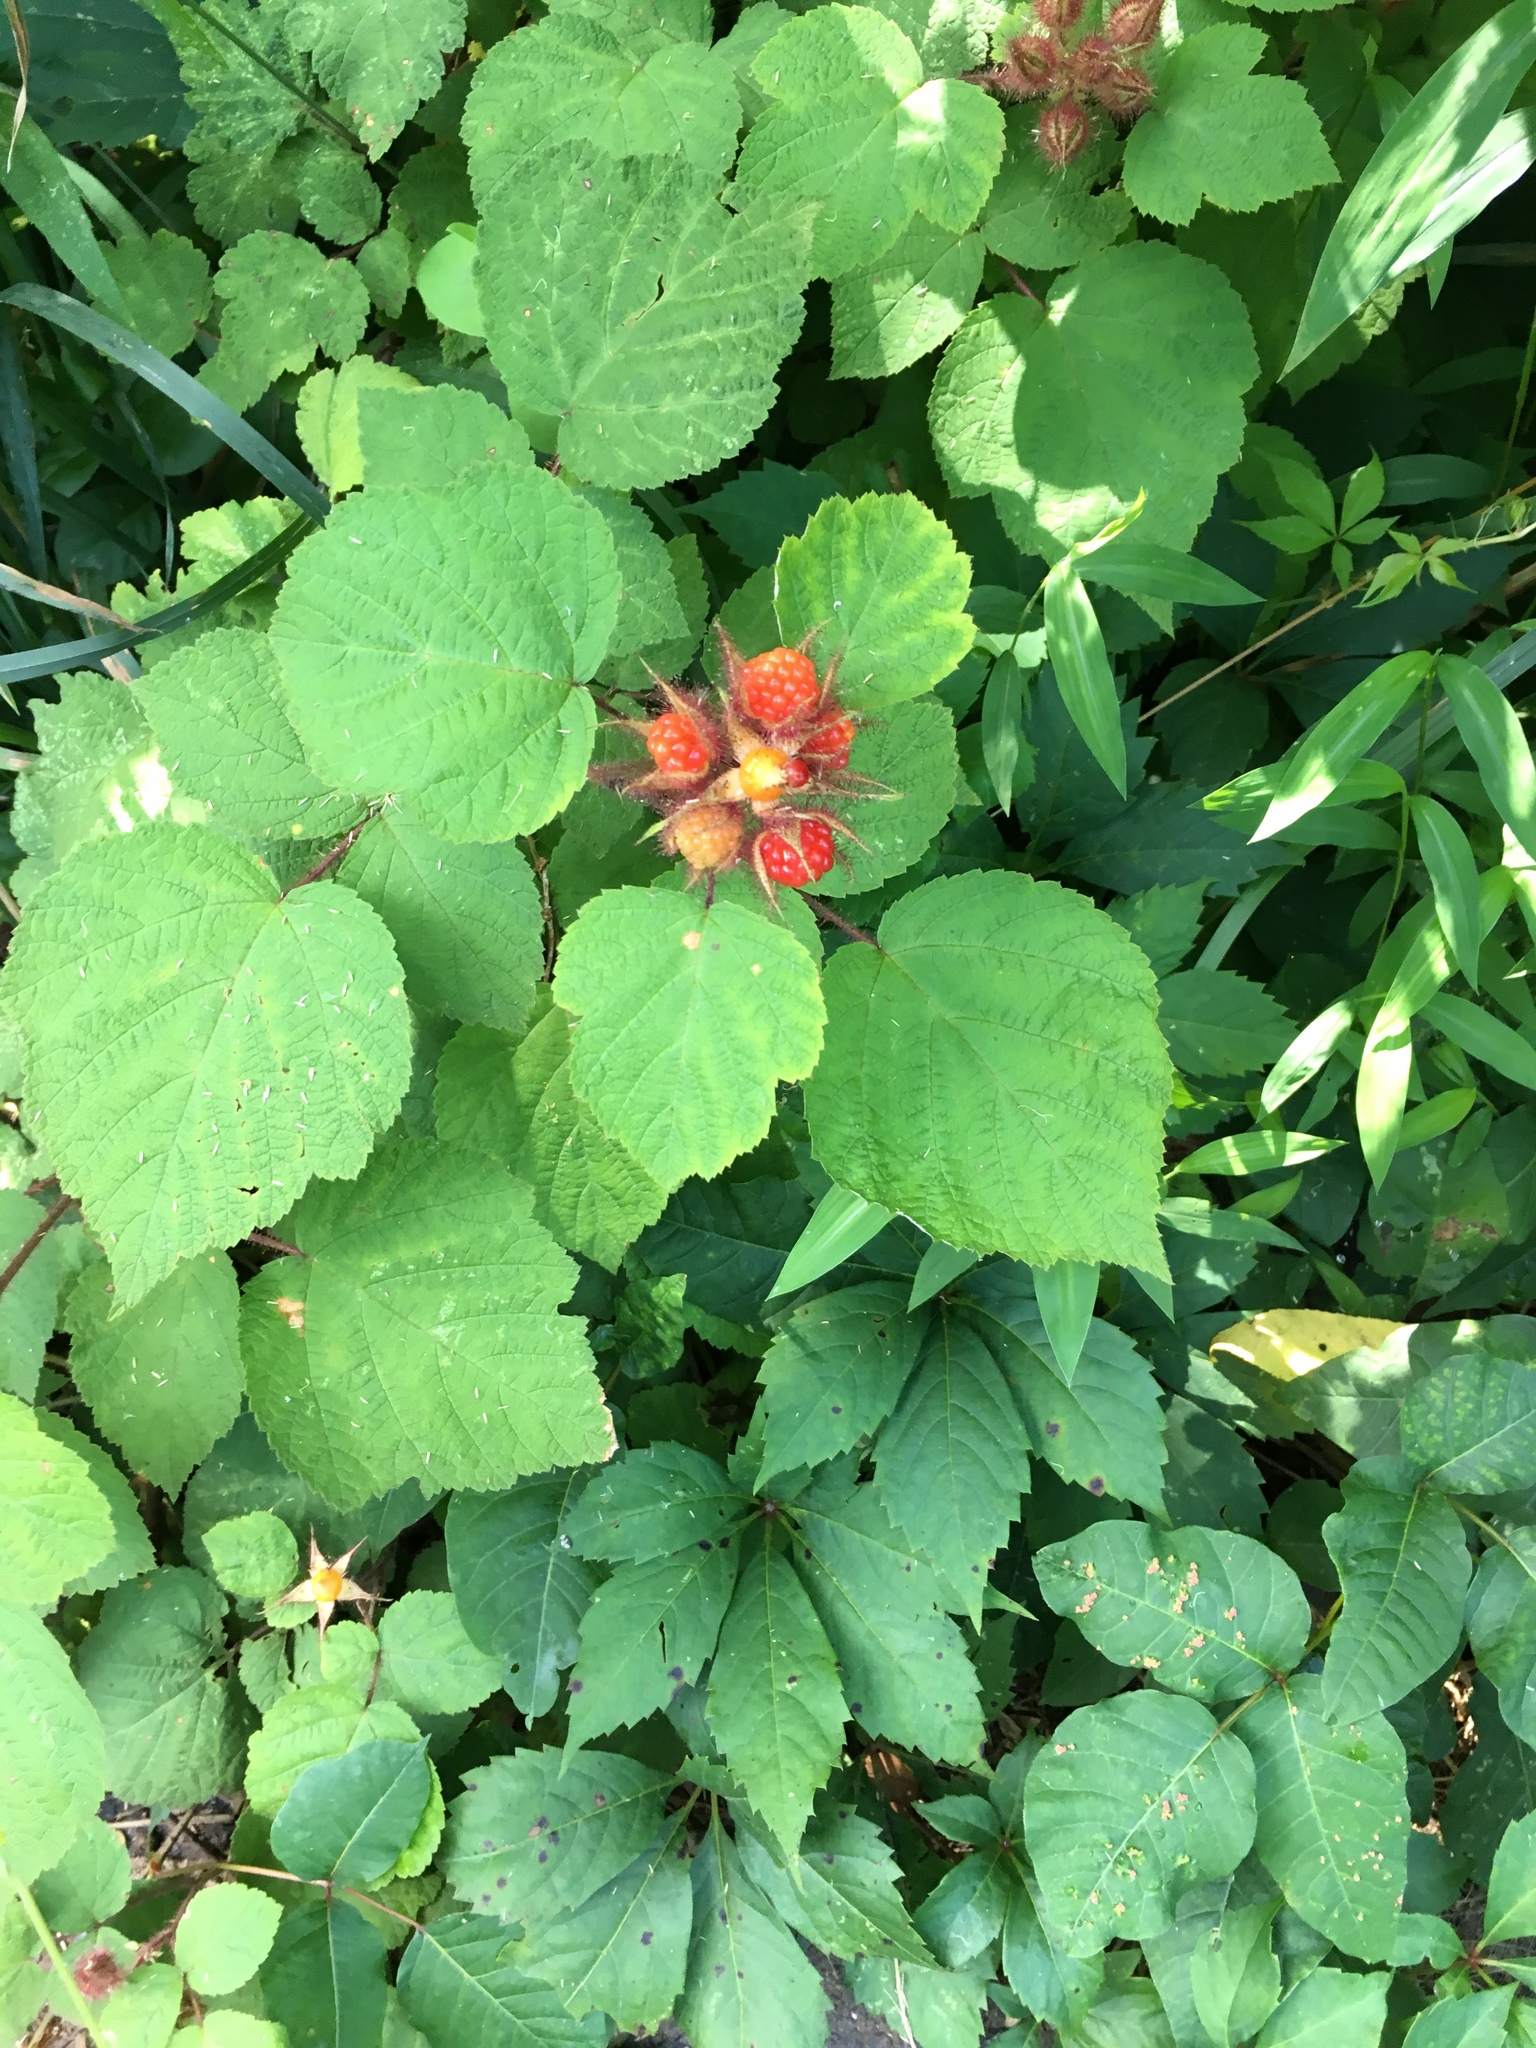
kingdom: Plantae
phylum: Tracheophyta
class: Magnoliopsida
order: Rosales
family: Rosaceae
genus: Rubus
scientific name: Rubus phoenicolasius
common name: Japanese wineberry
